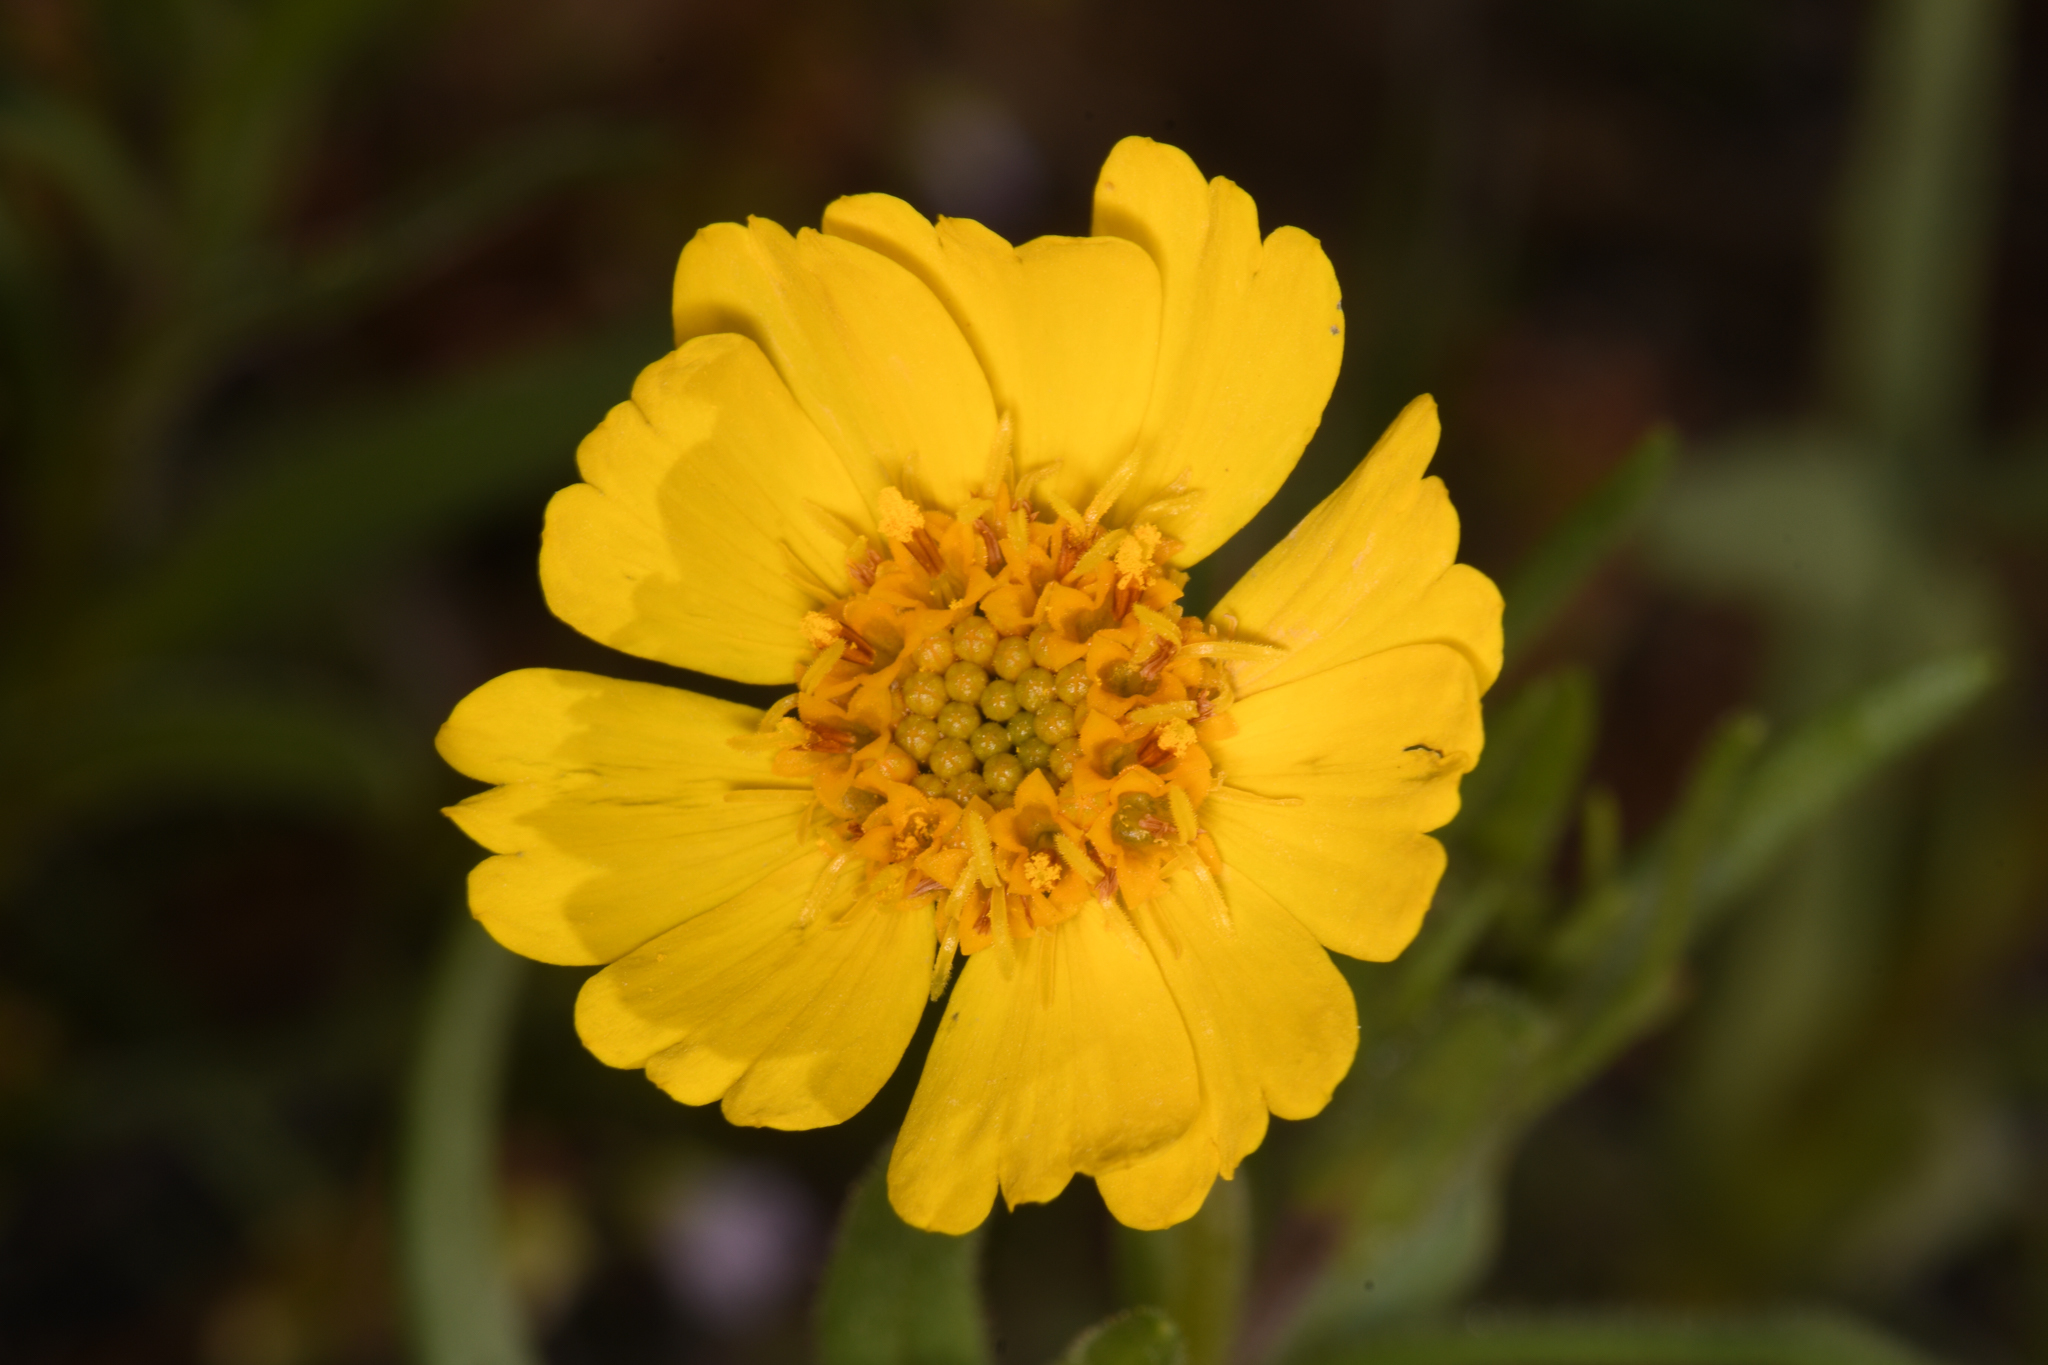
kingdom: Plantae
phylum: Tracheophyta
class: Magnoliopsida
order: Asterales
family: Asteraceae
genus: Madia
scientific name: Madia radiata
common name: Showy madia
